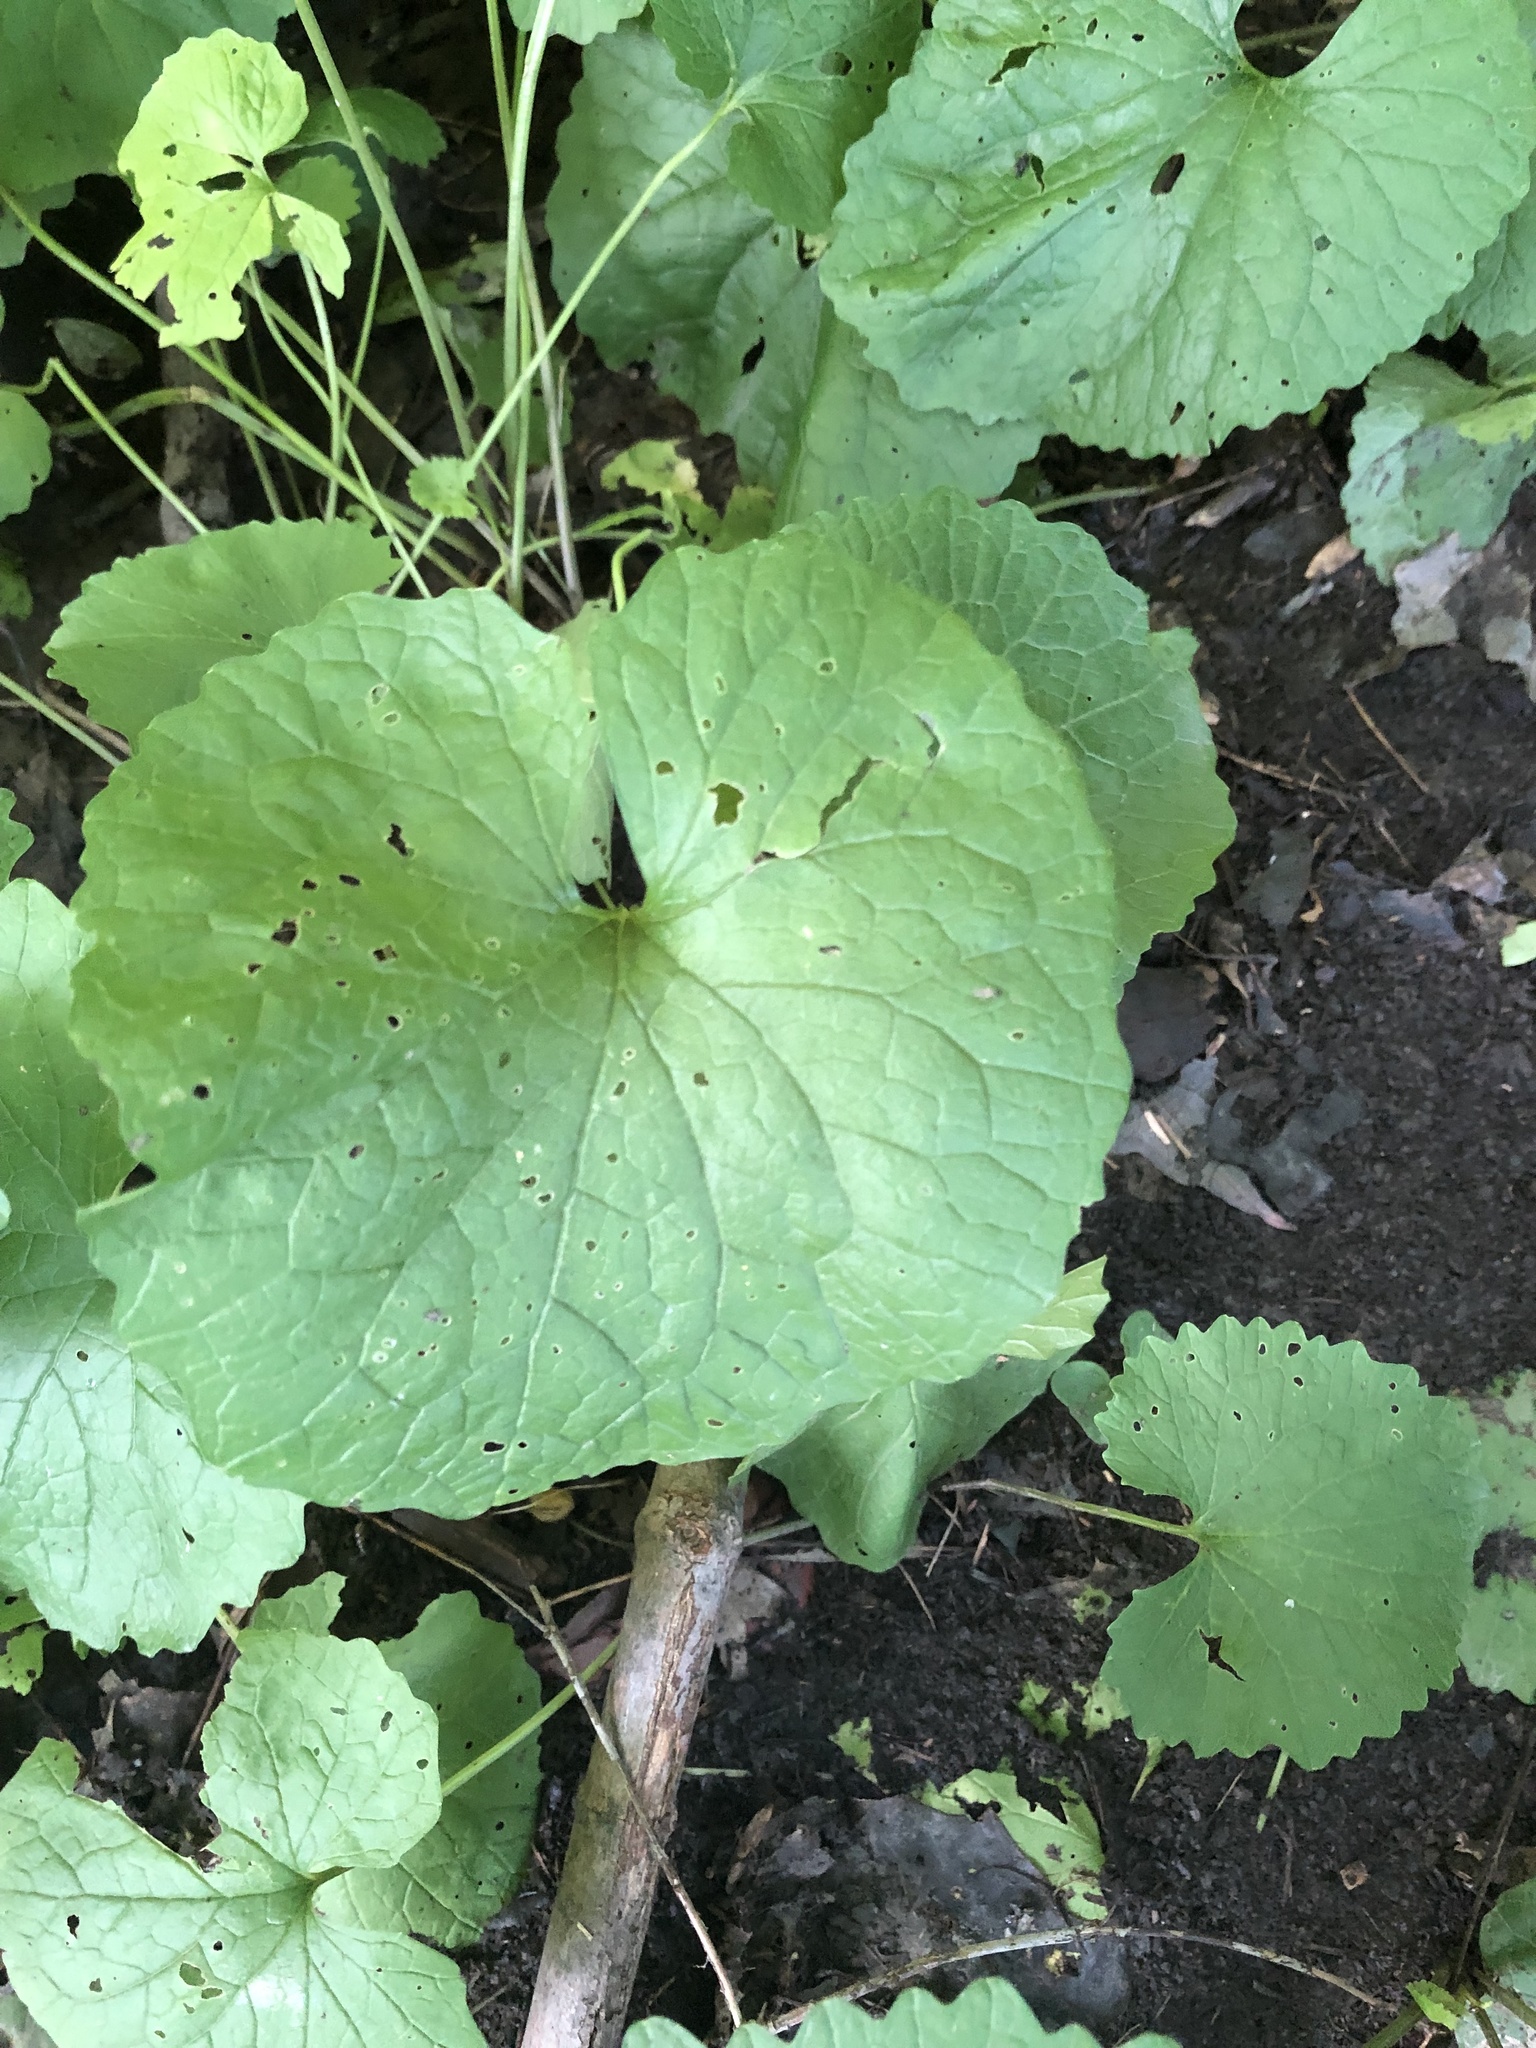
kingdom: Plantae
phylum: Tracheophyta
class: Magnoliopsida
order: Brassicales
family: Brassicaceae
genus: Alliaria
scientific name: Alliaria petiolata
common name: Garlic mustard
